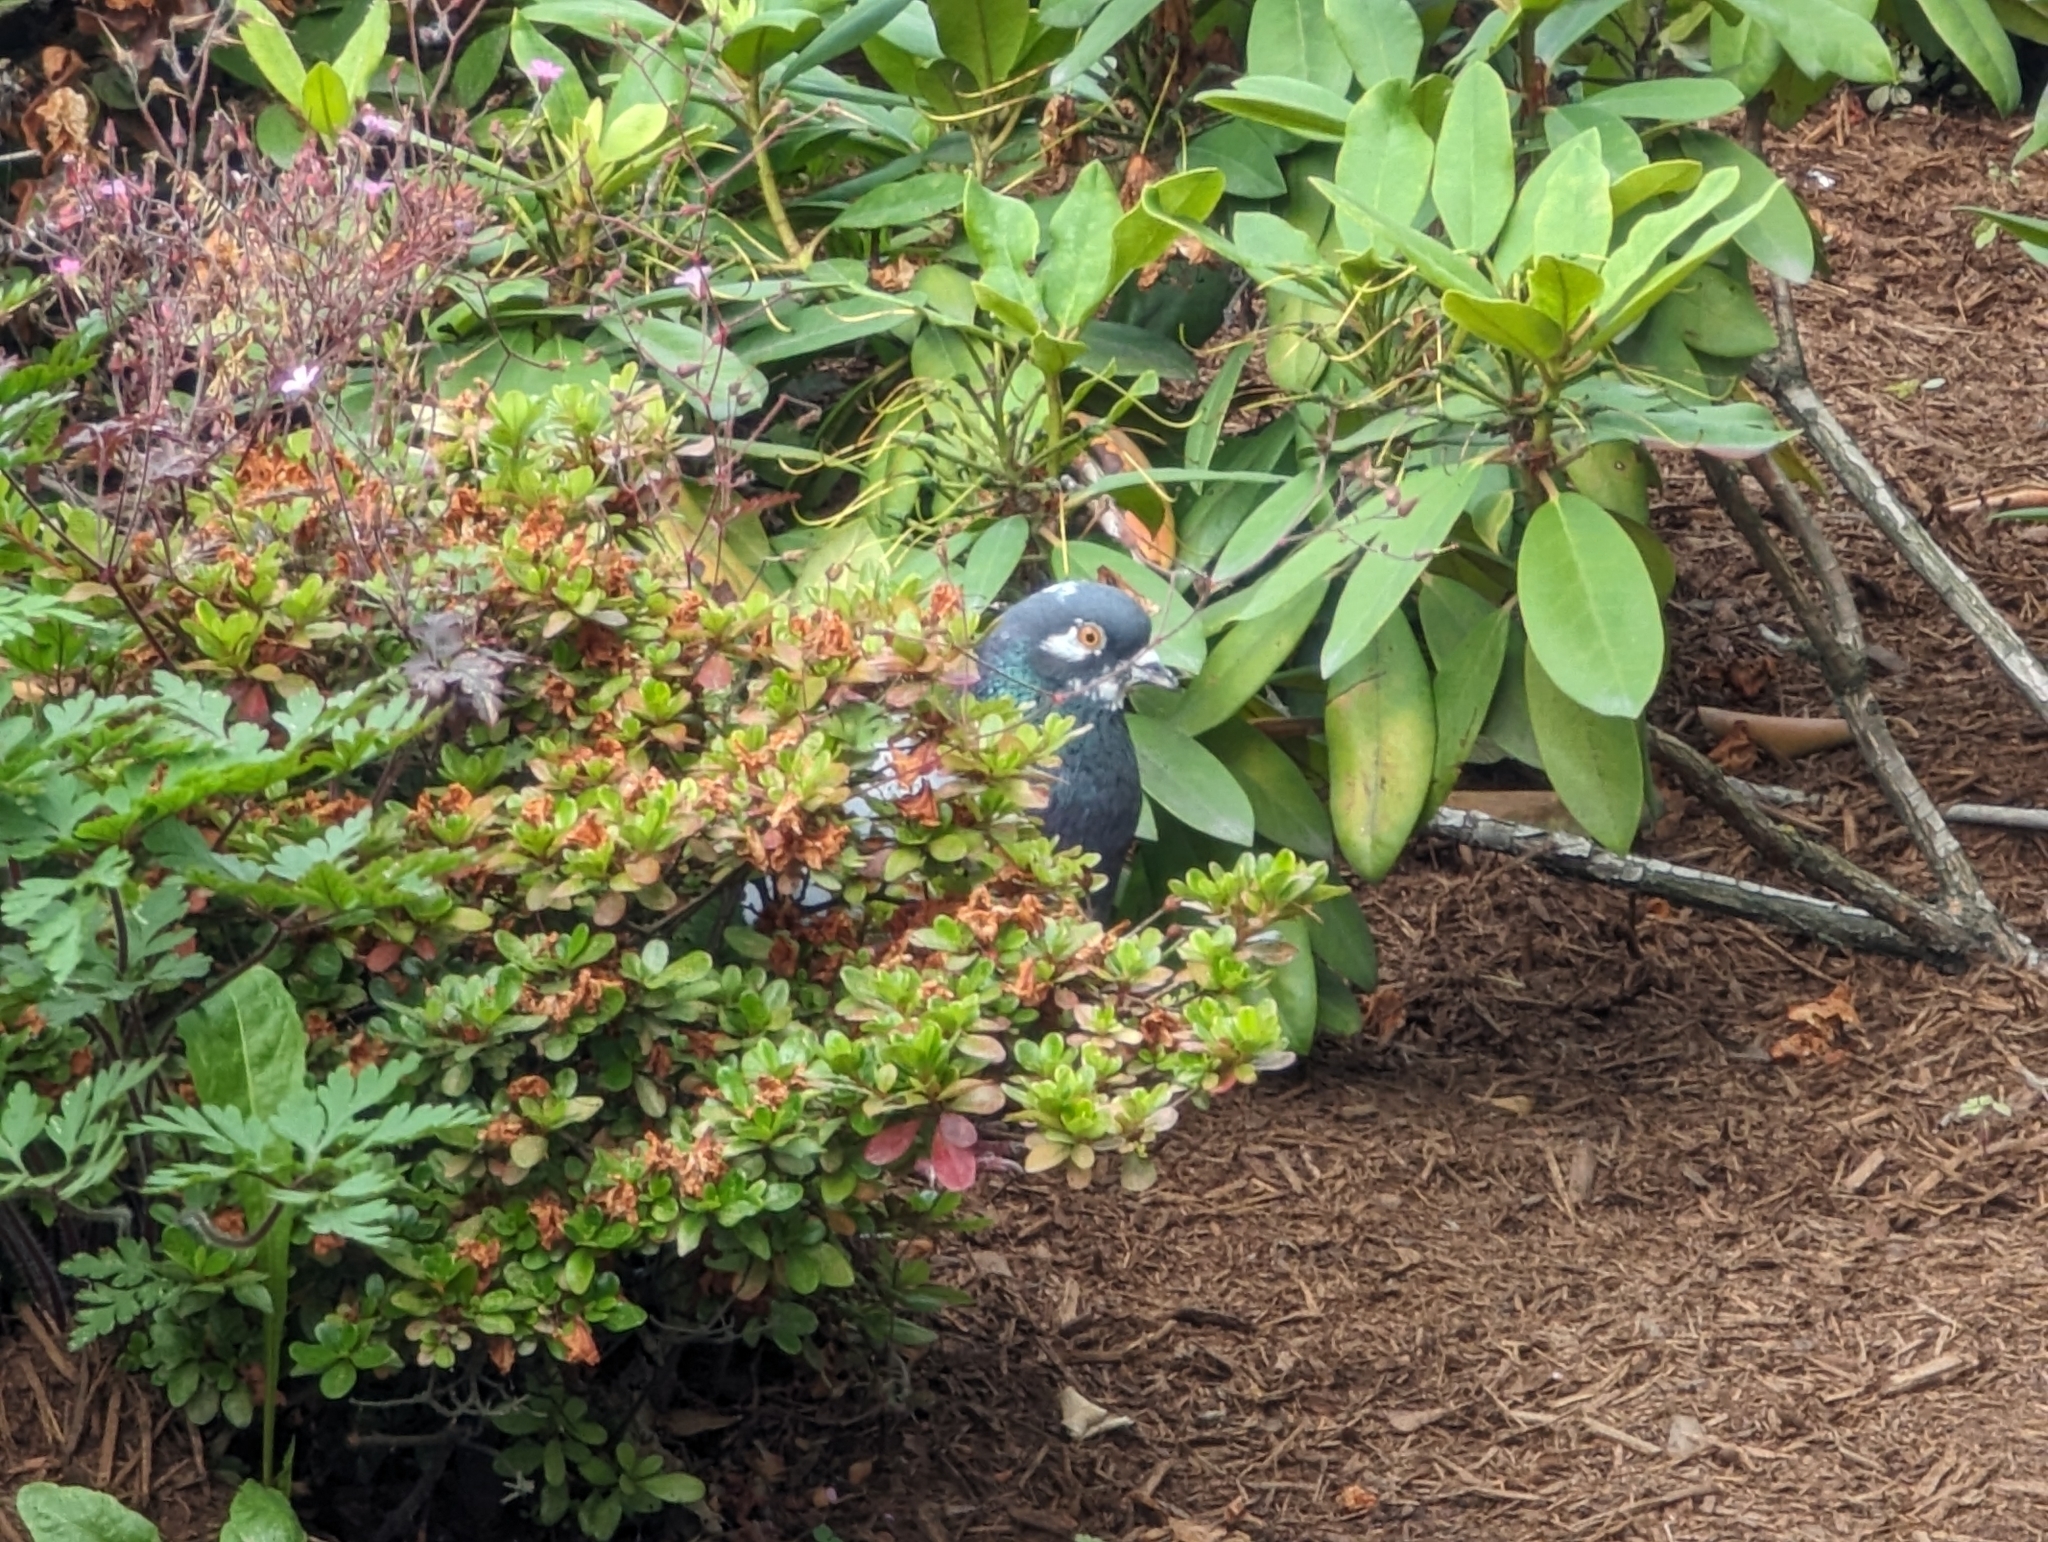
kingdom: Animalia
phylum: Chordata
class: Aves
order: Columbiformes
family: Columbidae
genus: Columba
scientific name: Columba livia
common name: Rock pigeon
